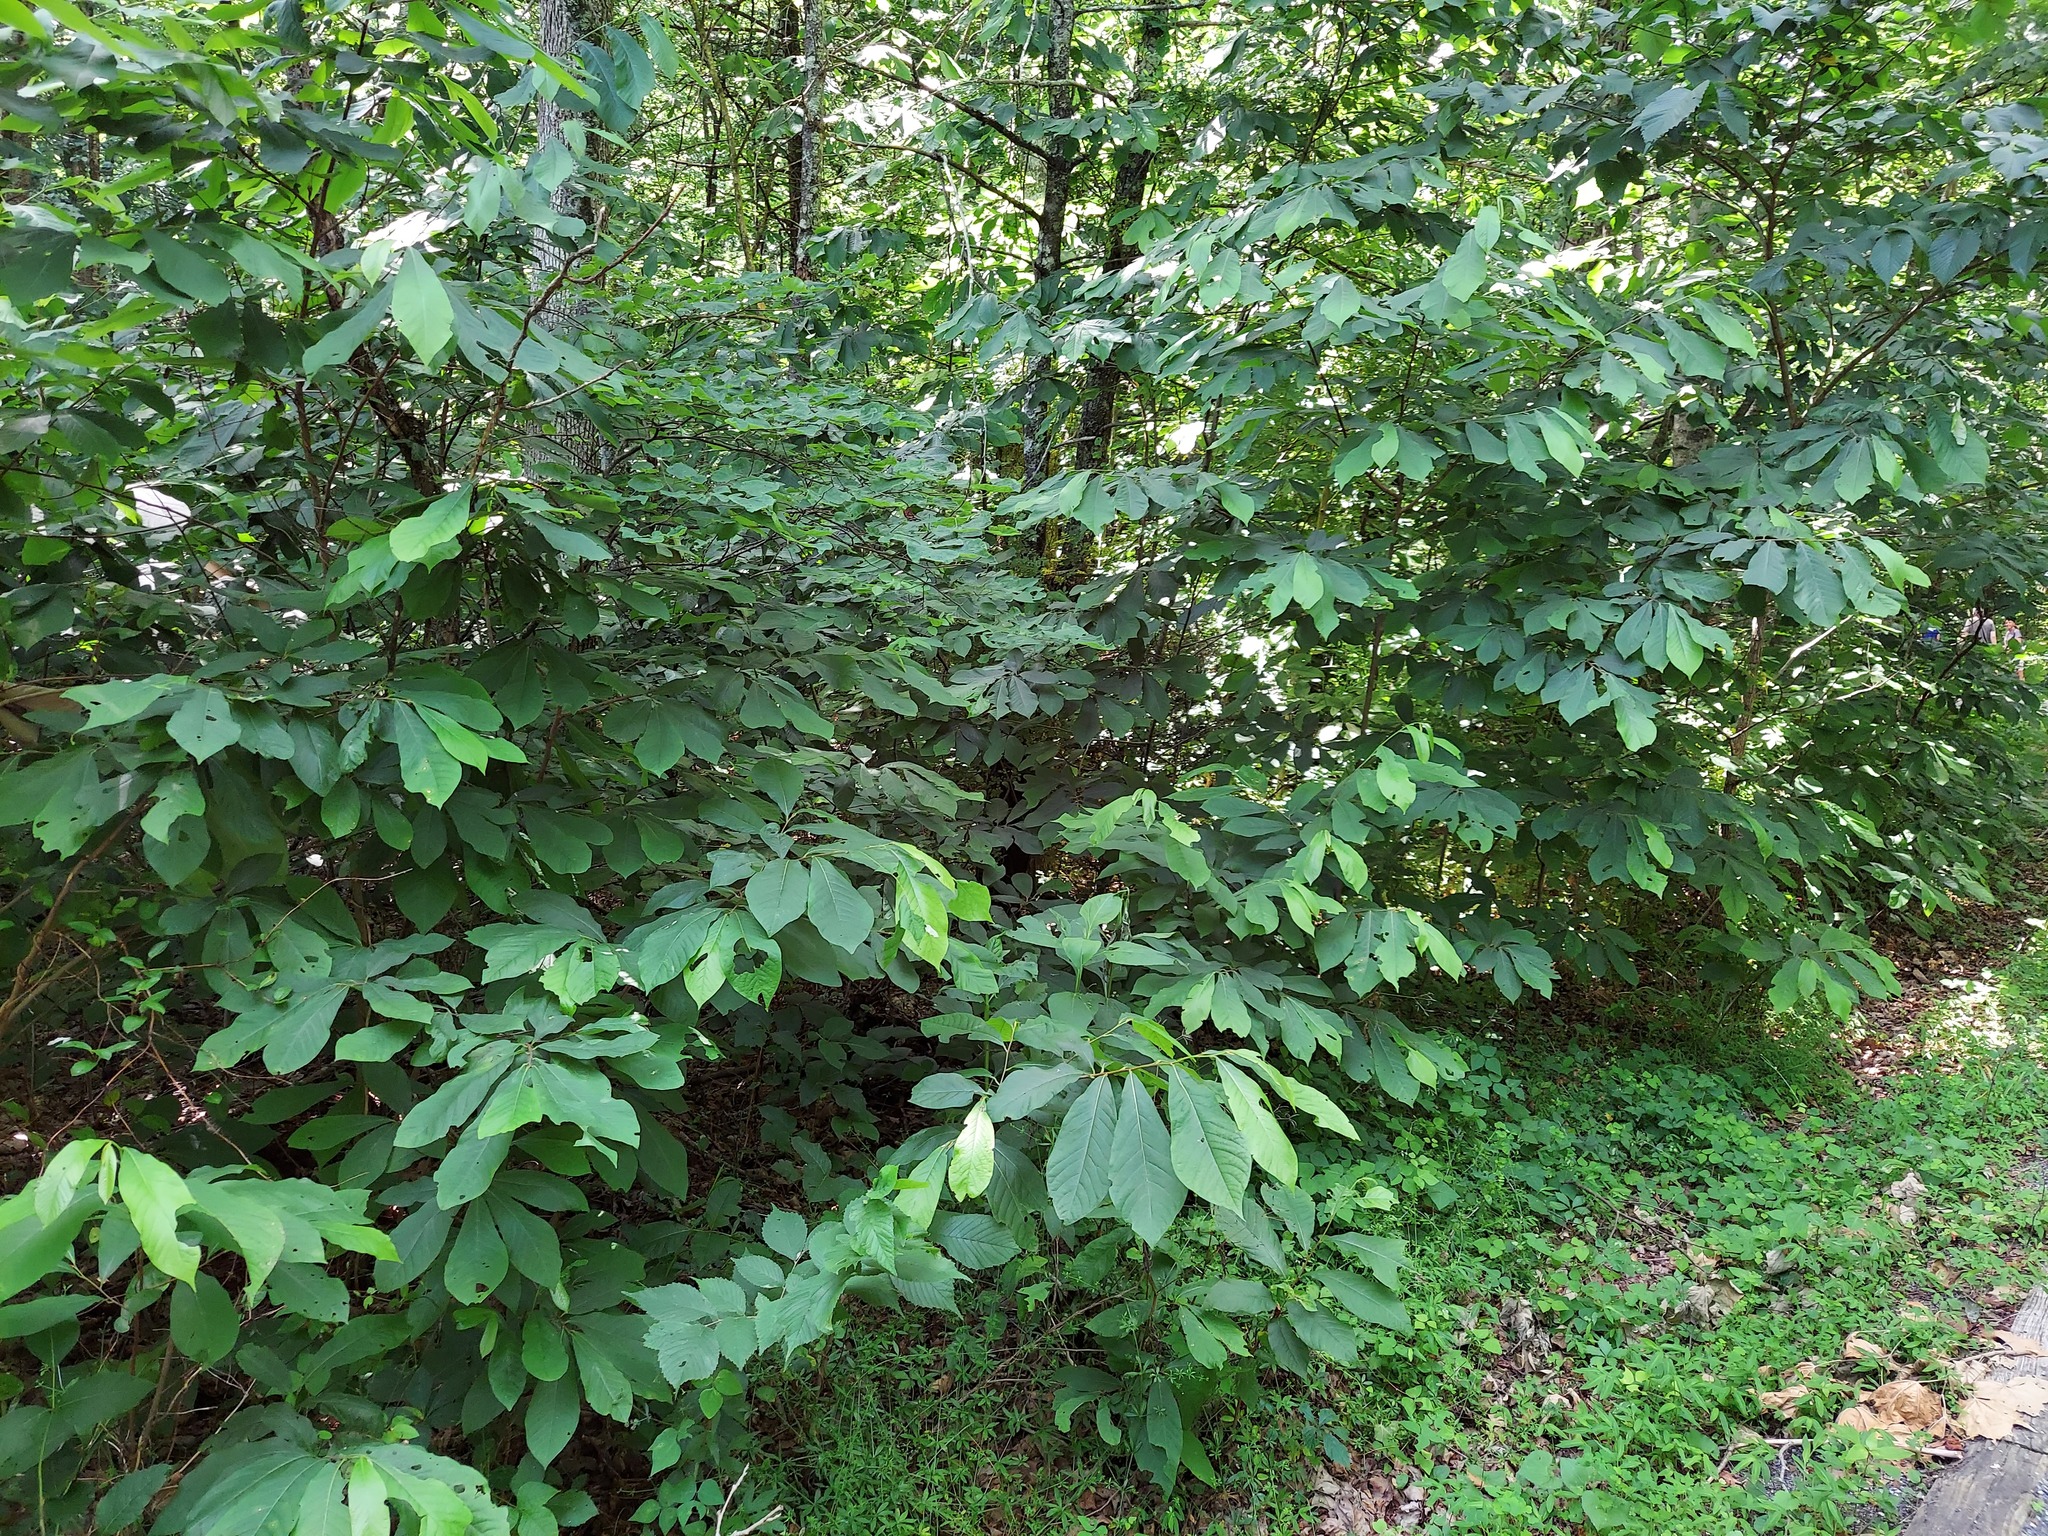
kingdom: Plantae
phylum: Tracheophyta
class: Magnoliopsida
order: Magnoliales
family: Annonaceae
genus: Asimina
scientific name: Asimina triloba
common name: Dog-banana
